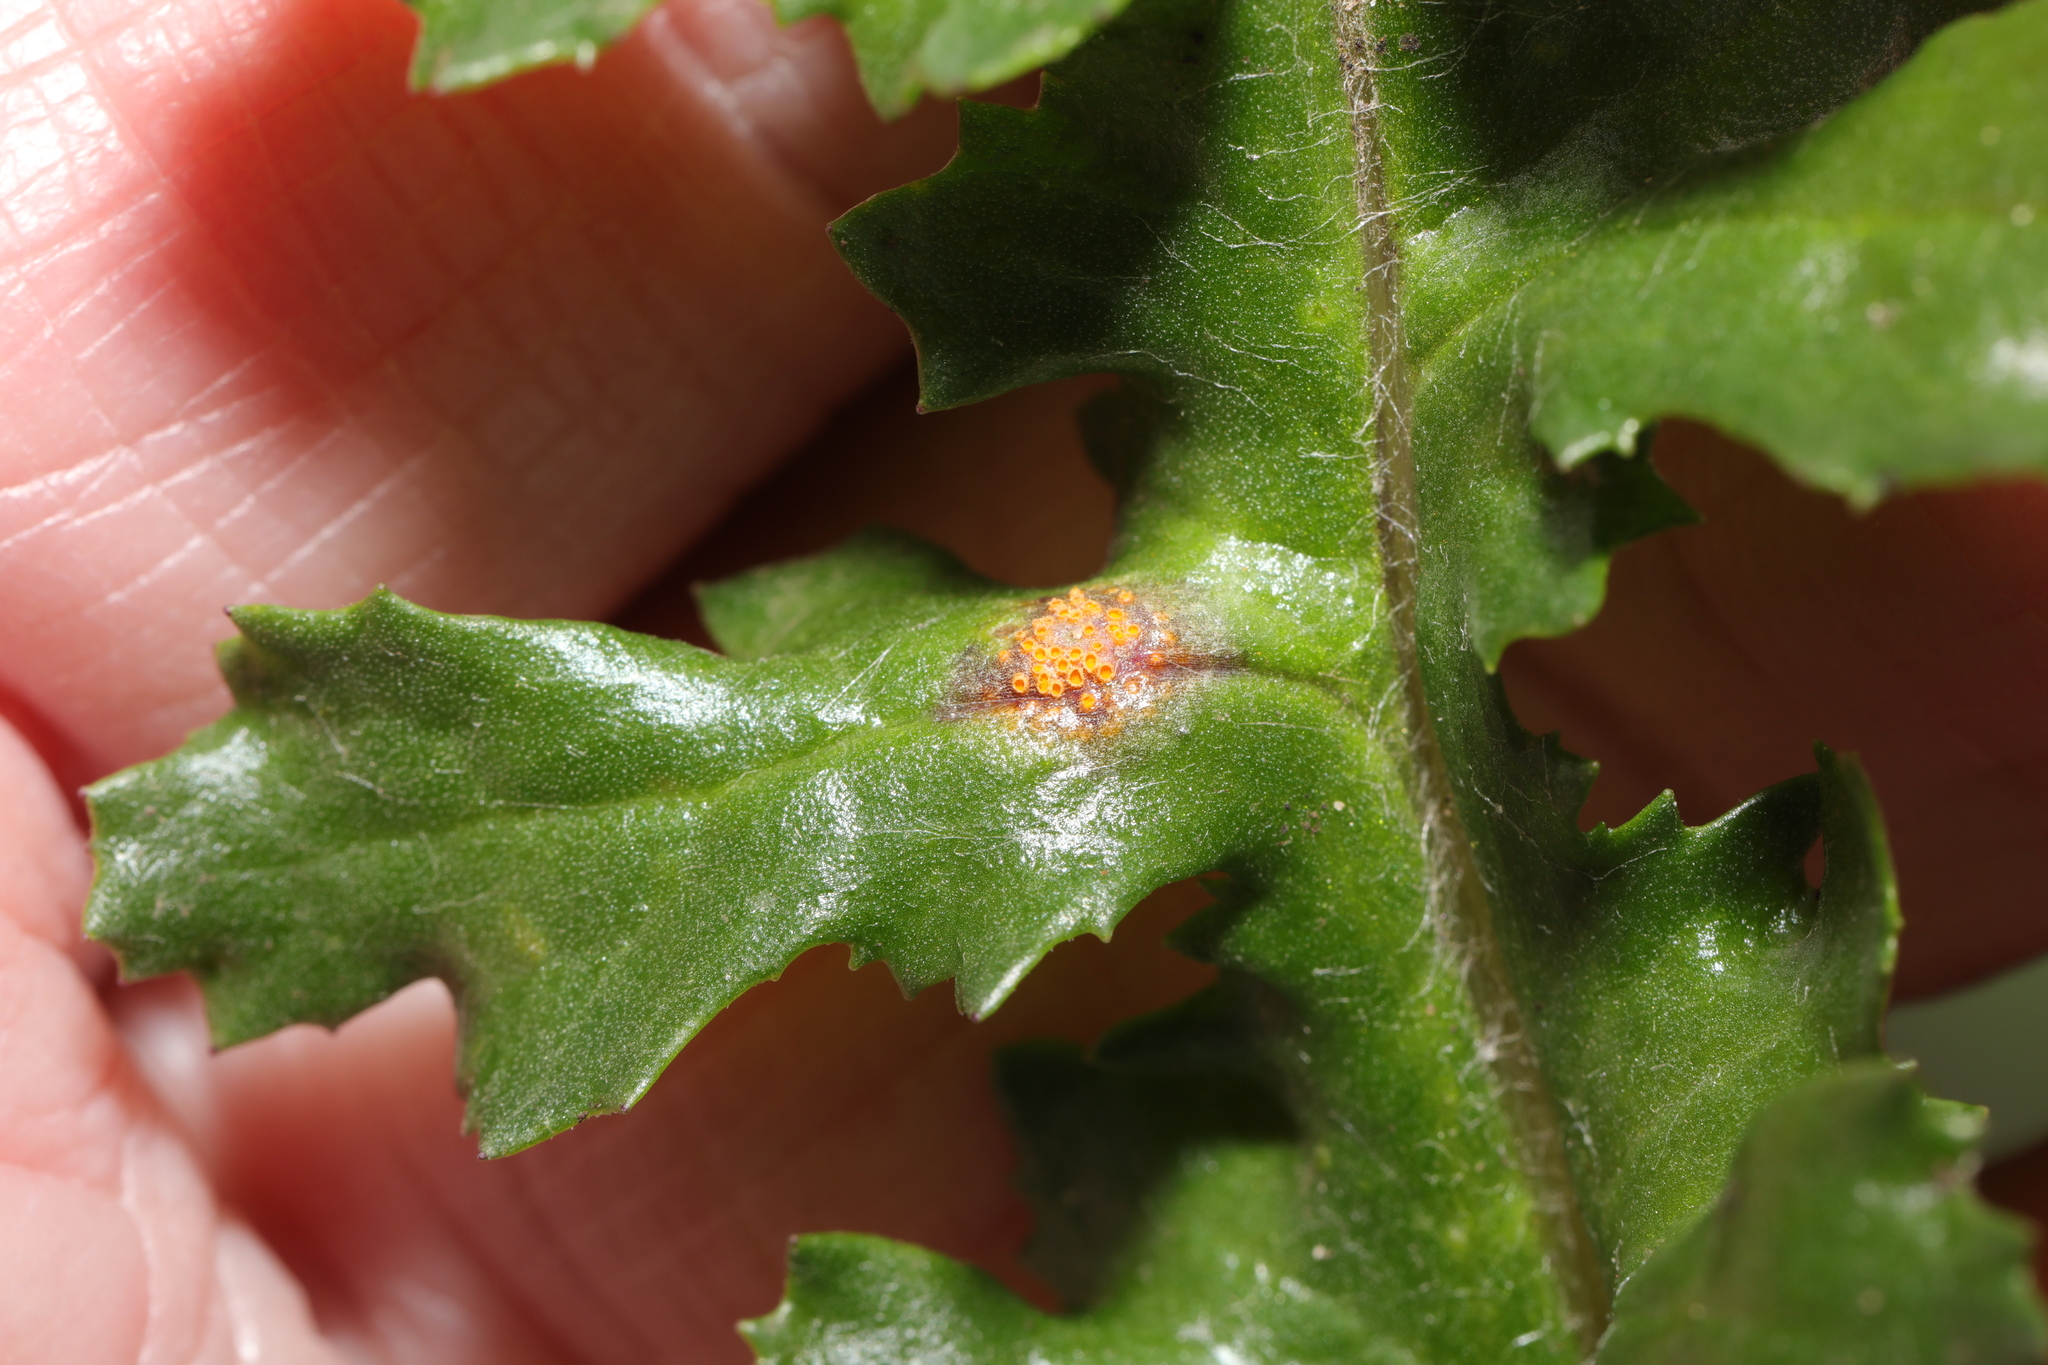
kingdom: Fungi
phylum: Basidiomycota
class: Pucciniomycetes
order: Pucciniales
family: Pucciniaceae
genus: Puccinia
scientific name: Puccinia lagenophorae
